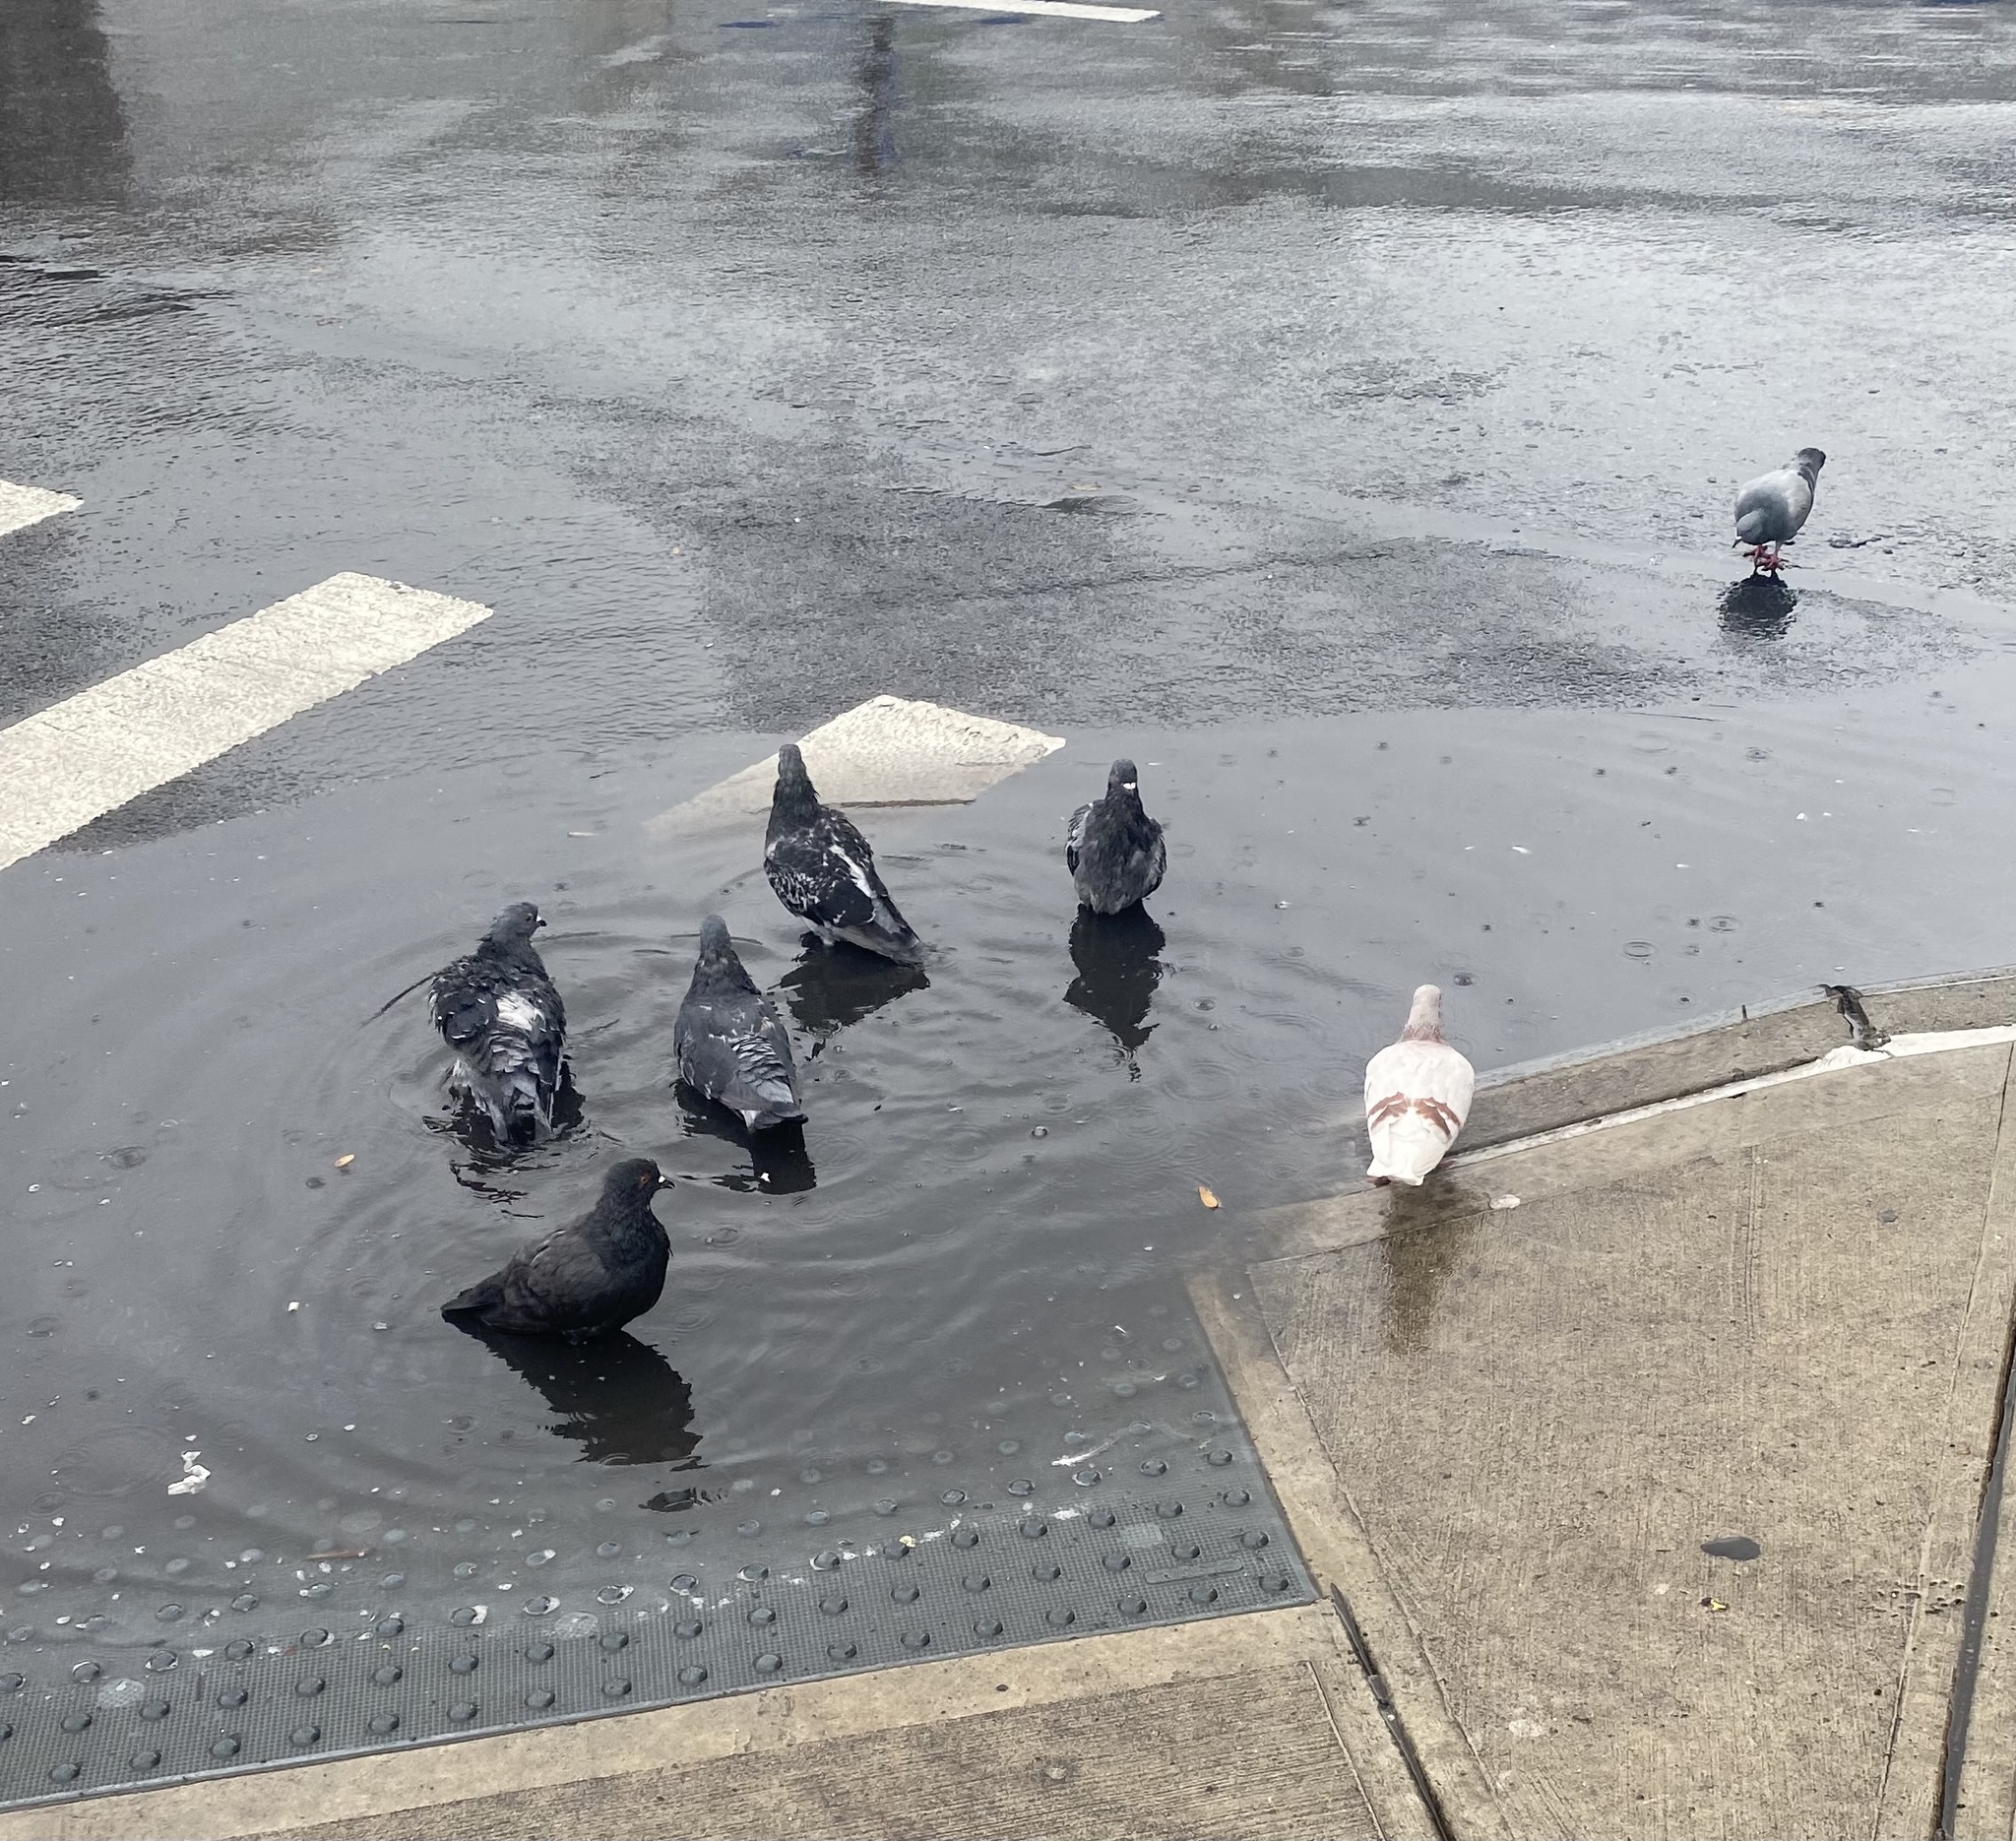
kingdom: Animalia
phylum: Chordata
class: Aves
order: Columbiformes
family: Columbidae
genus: Columba
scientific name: Columba livia
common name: Rock pigeon
